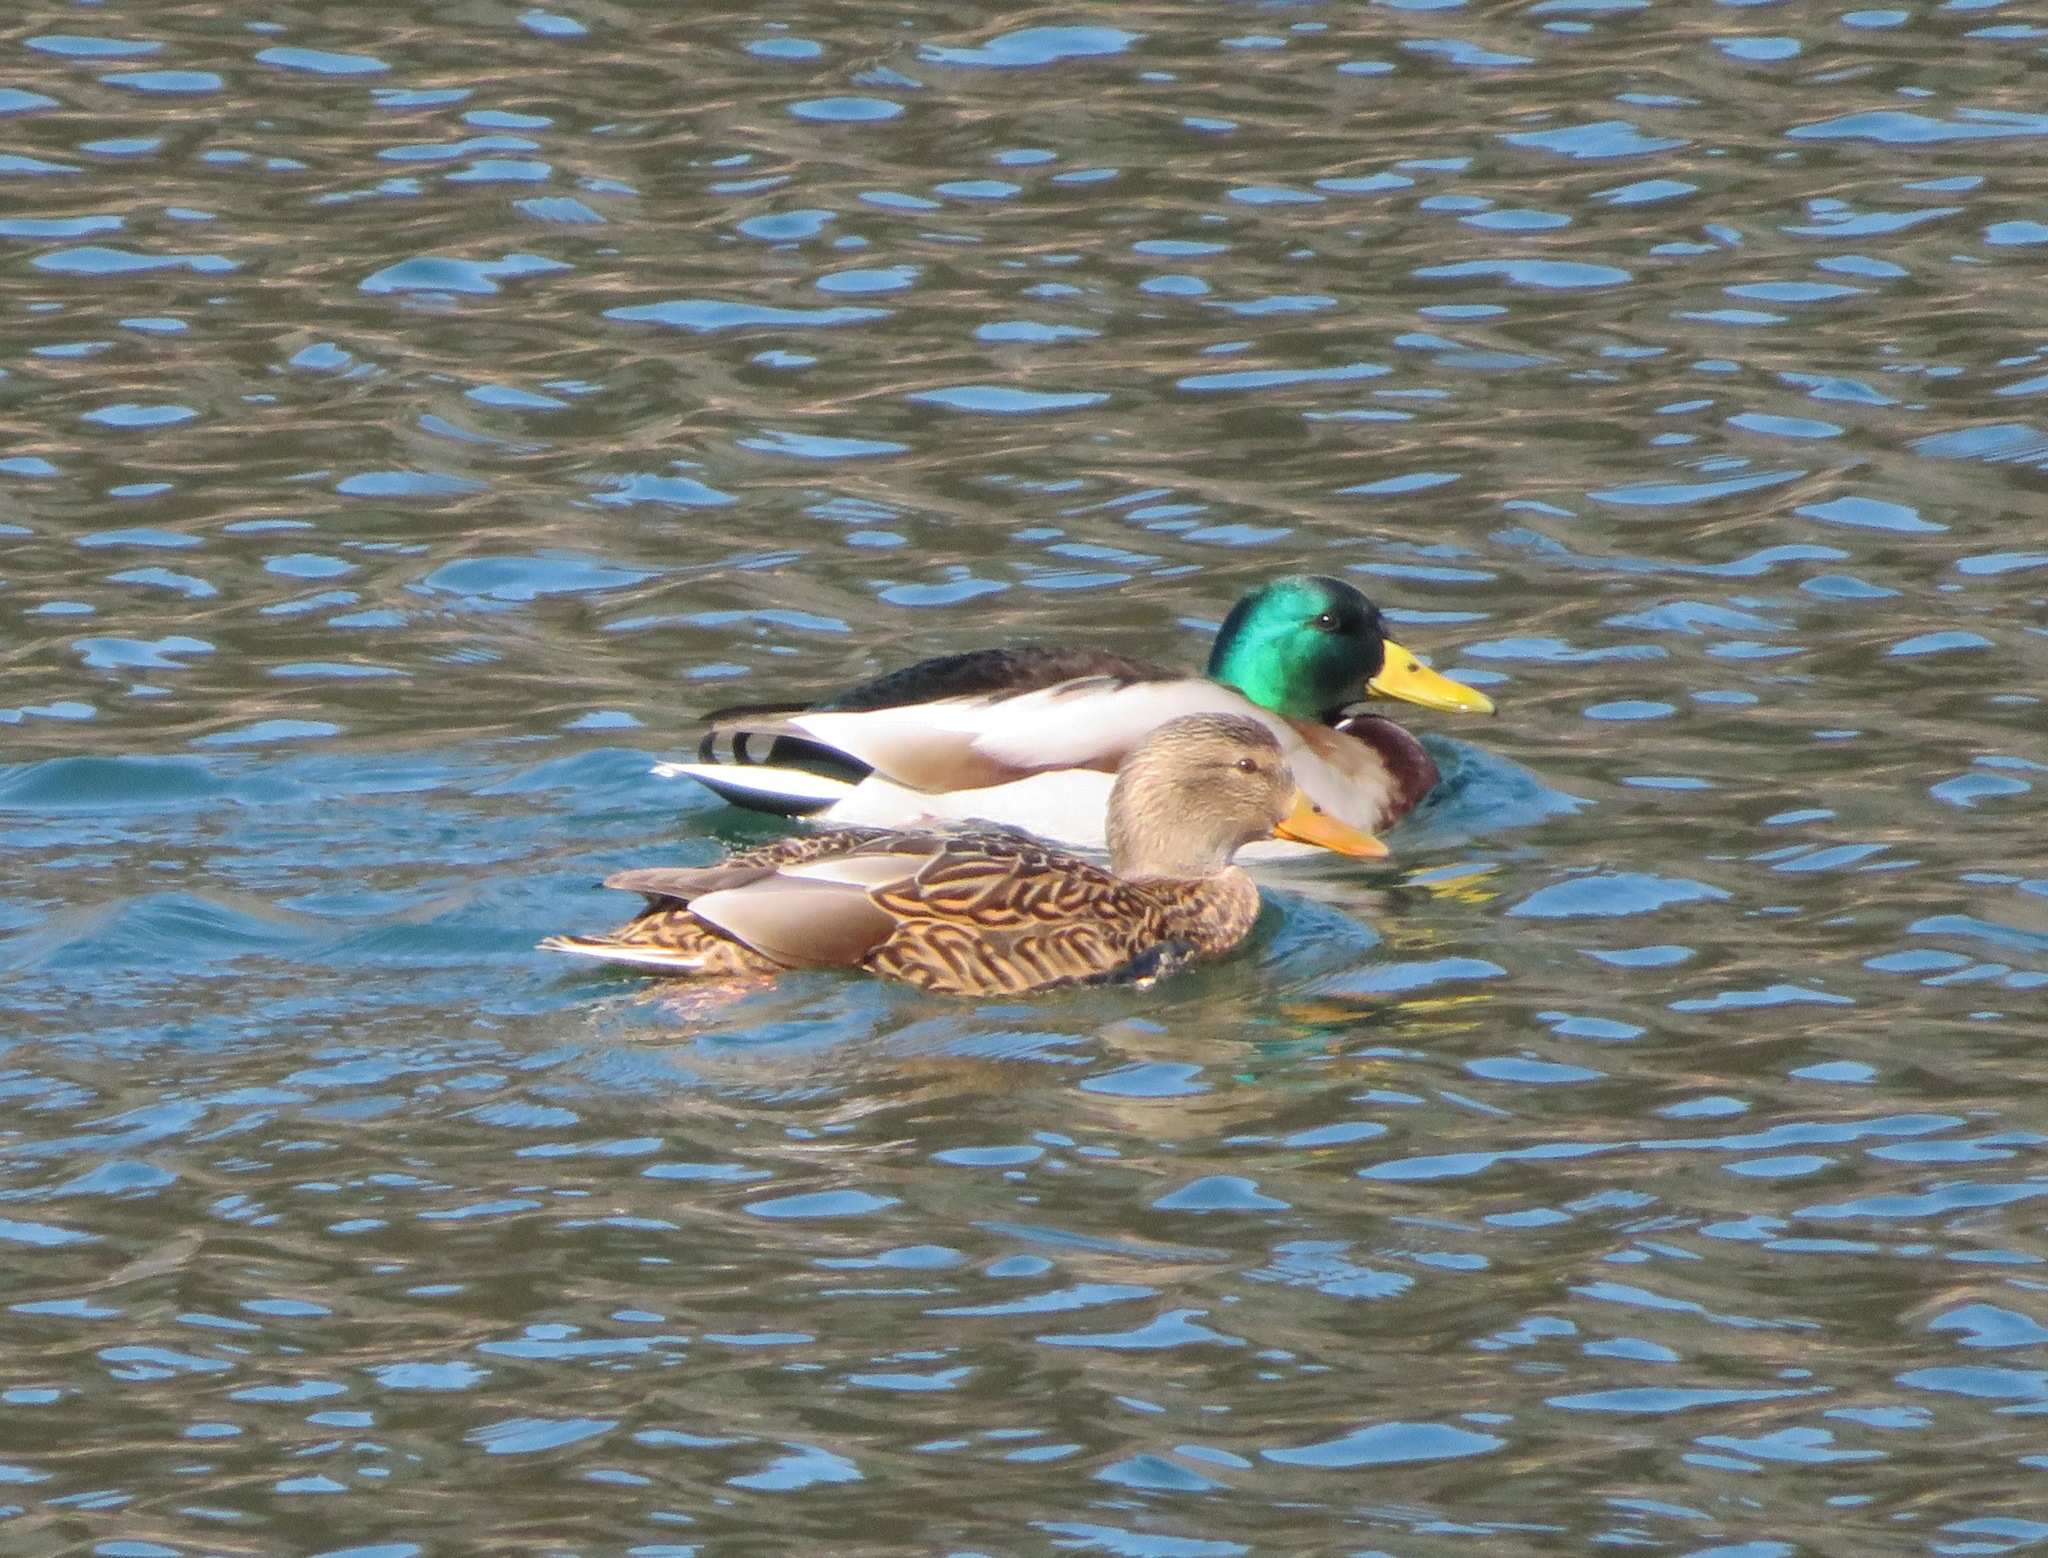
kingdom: Animalia
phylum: Chordata
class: Aves
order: Anseriformes
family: Anatidae
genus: Anas
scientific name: Anas platyrhynchos
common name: Mallard
